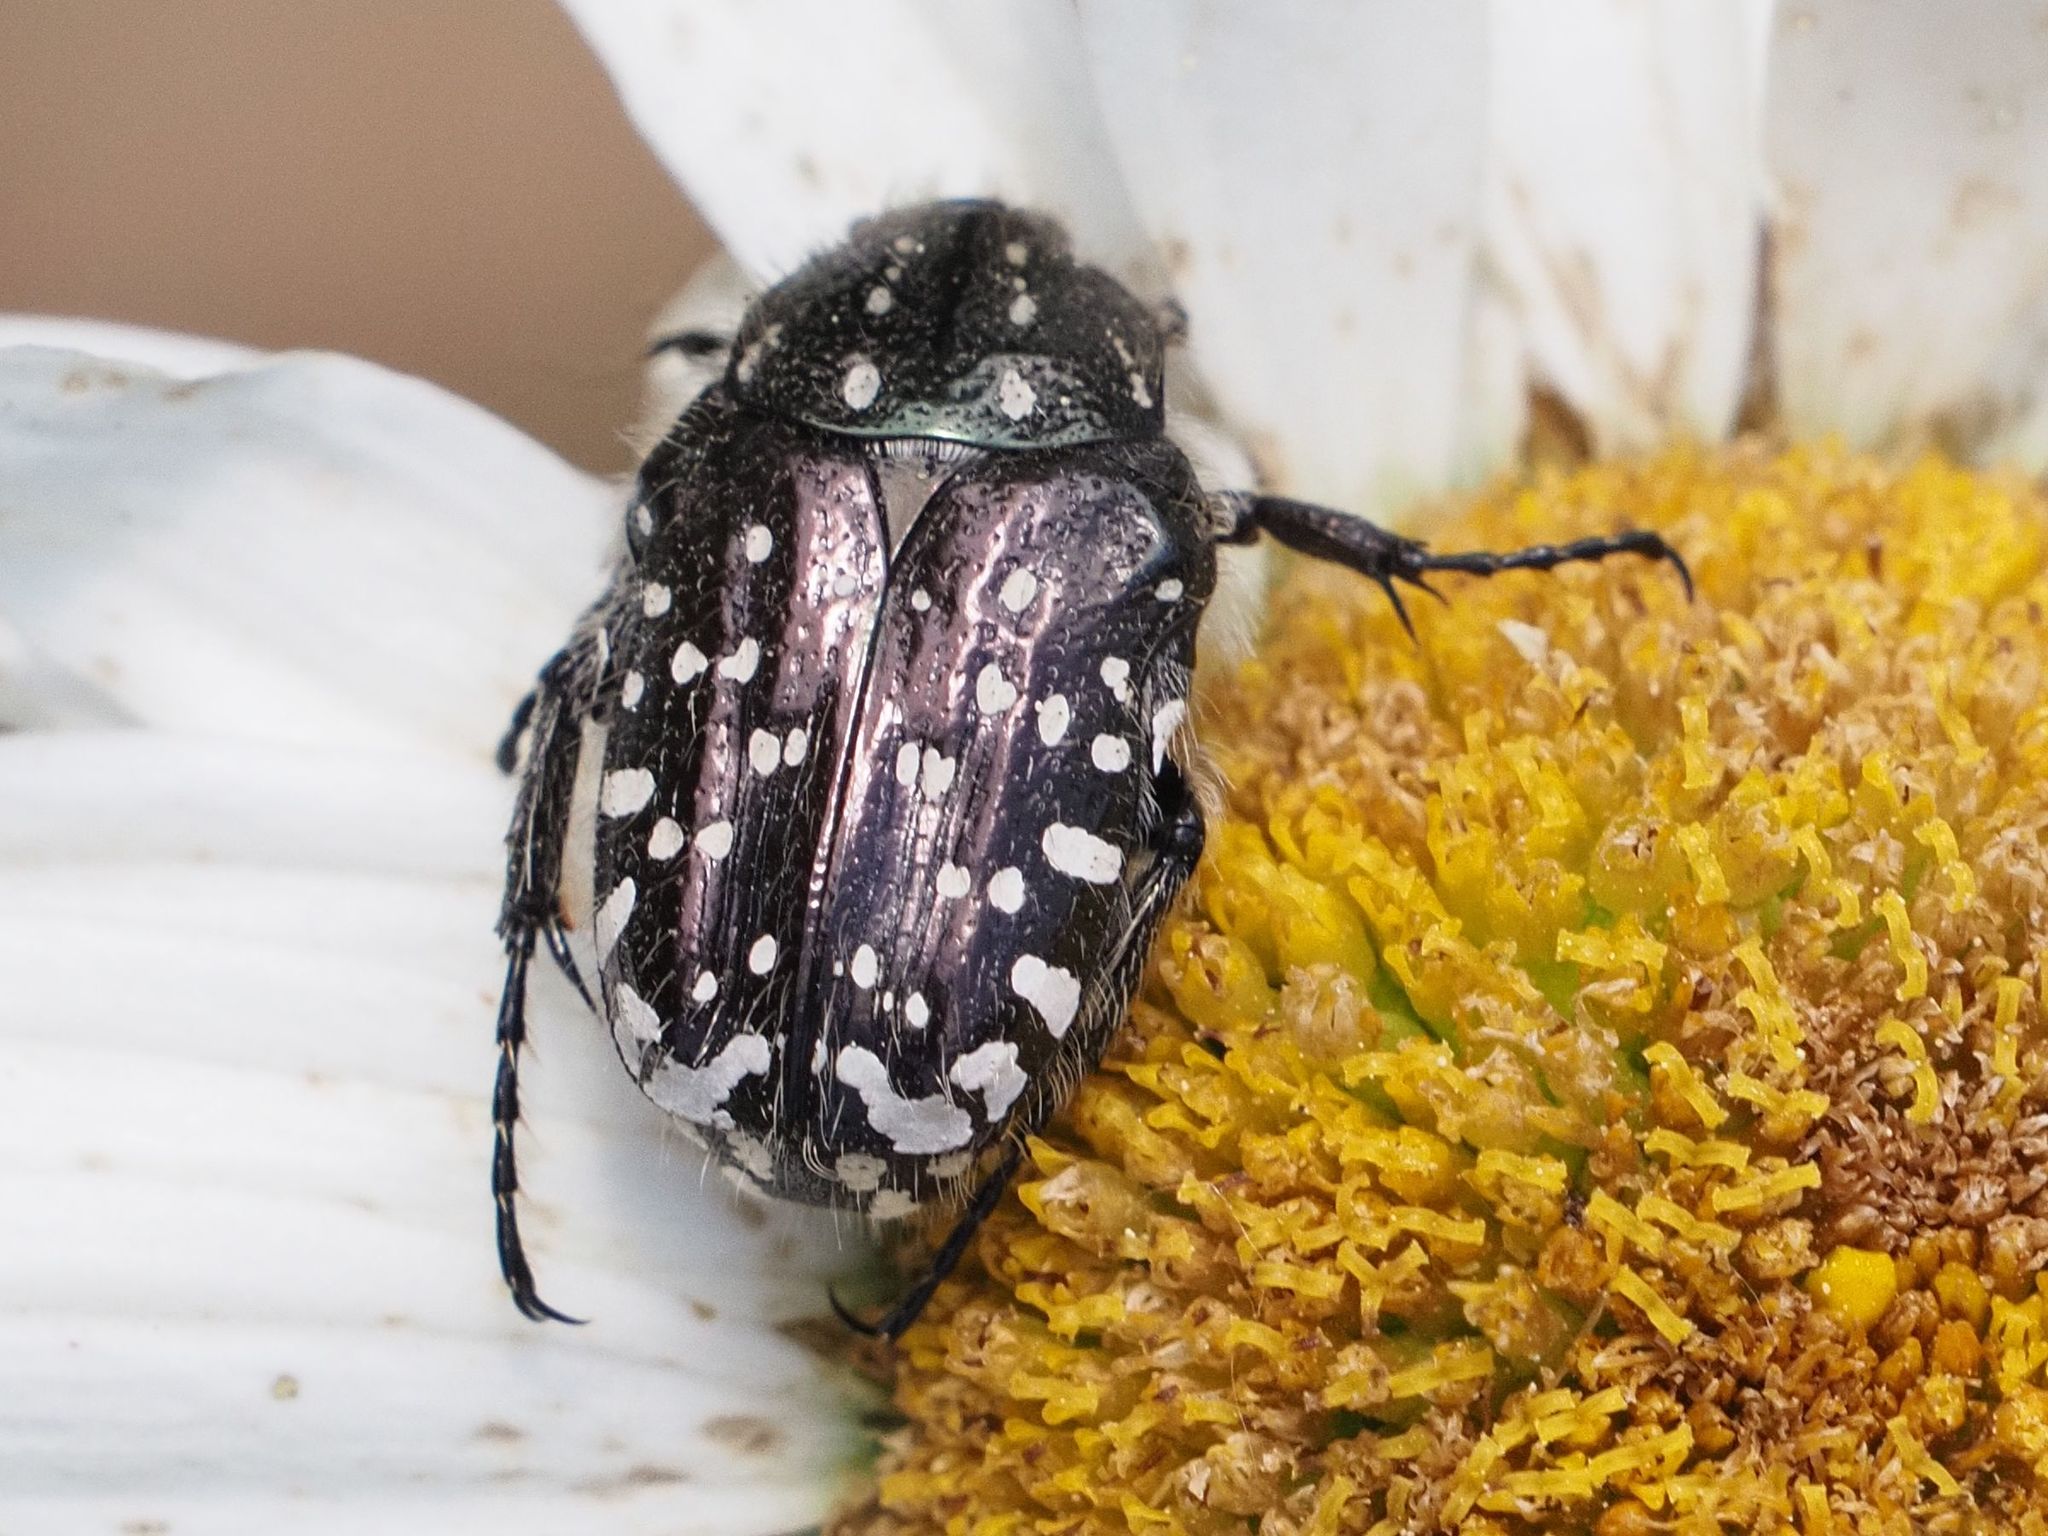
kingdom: Animalia
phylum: Arthropoda
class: Insecta
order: Coleoptera
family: Scarabaeidae
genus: Oxythyrea
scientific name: Oxythyrea funesta
